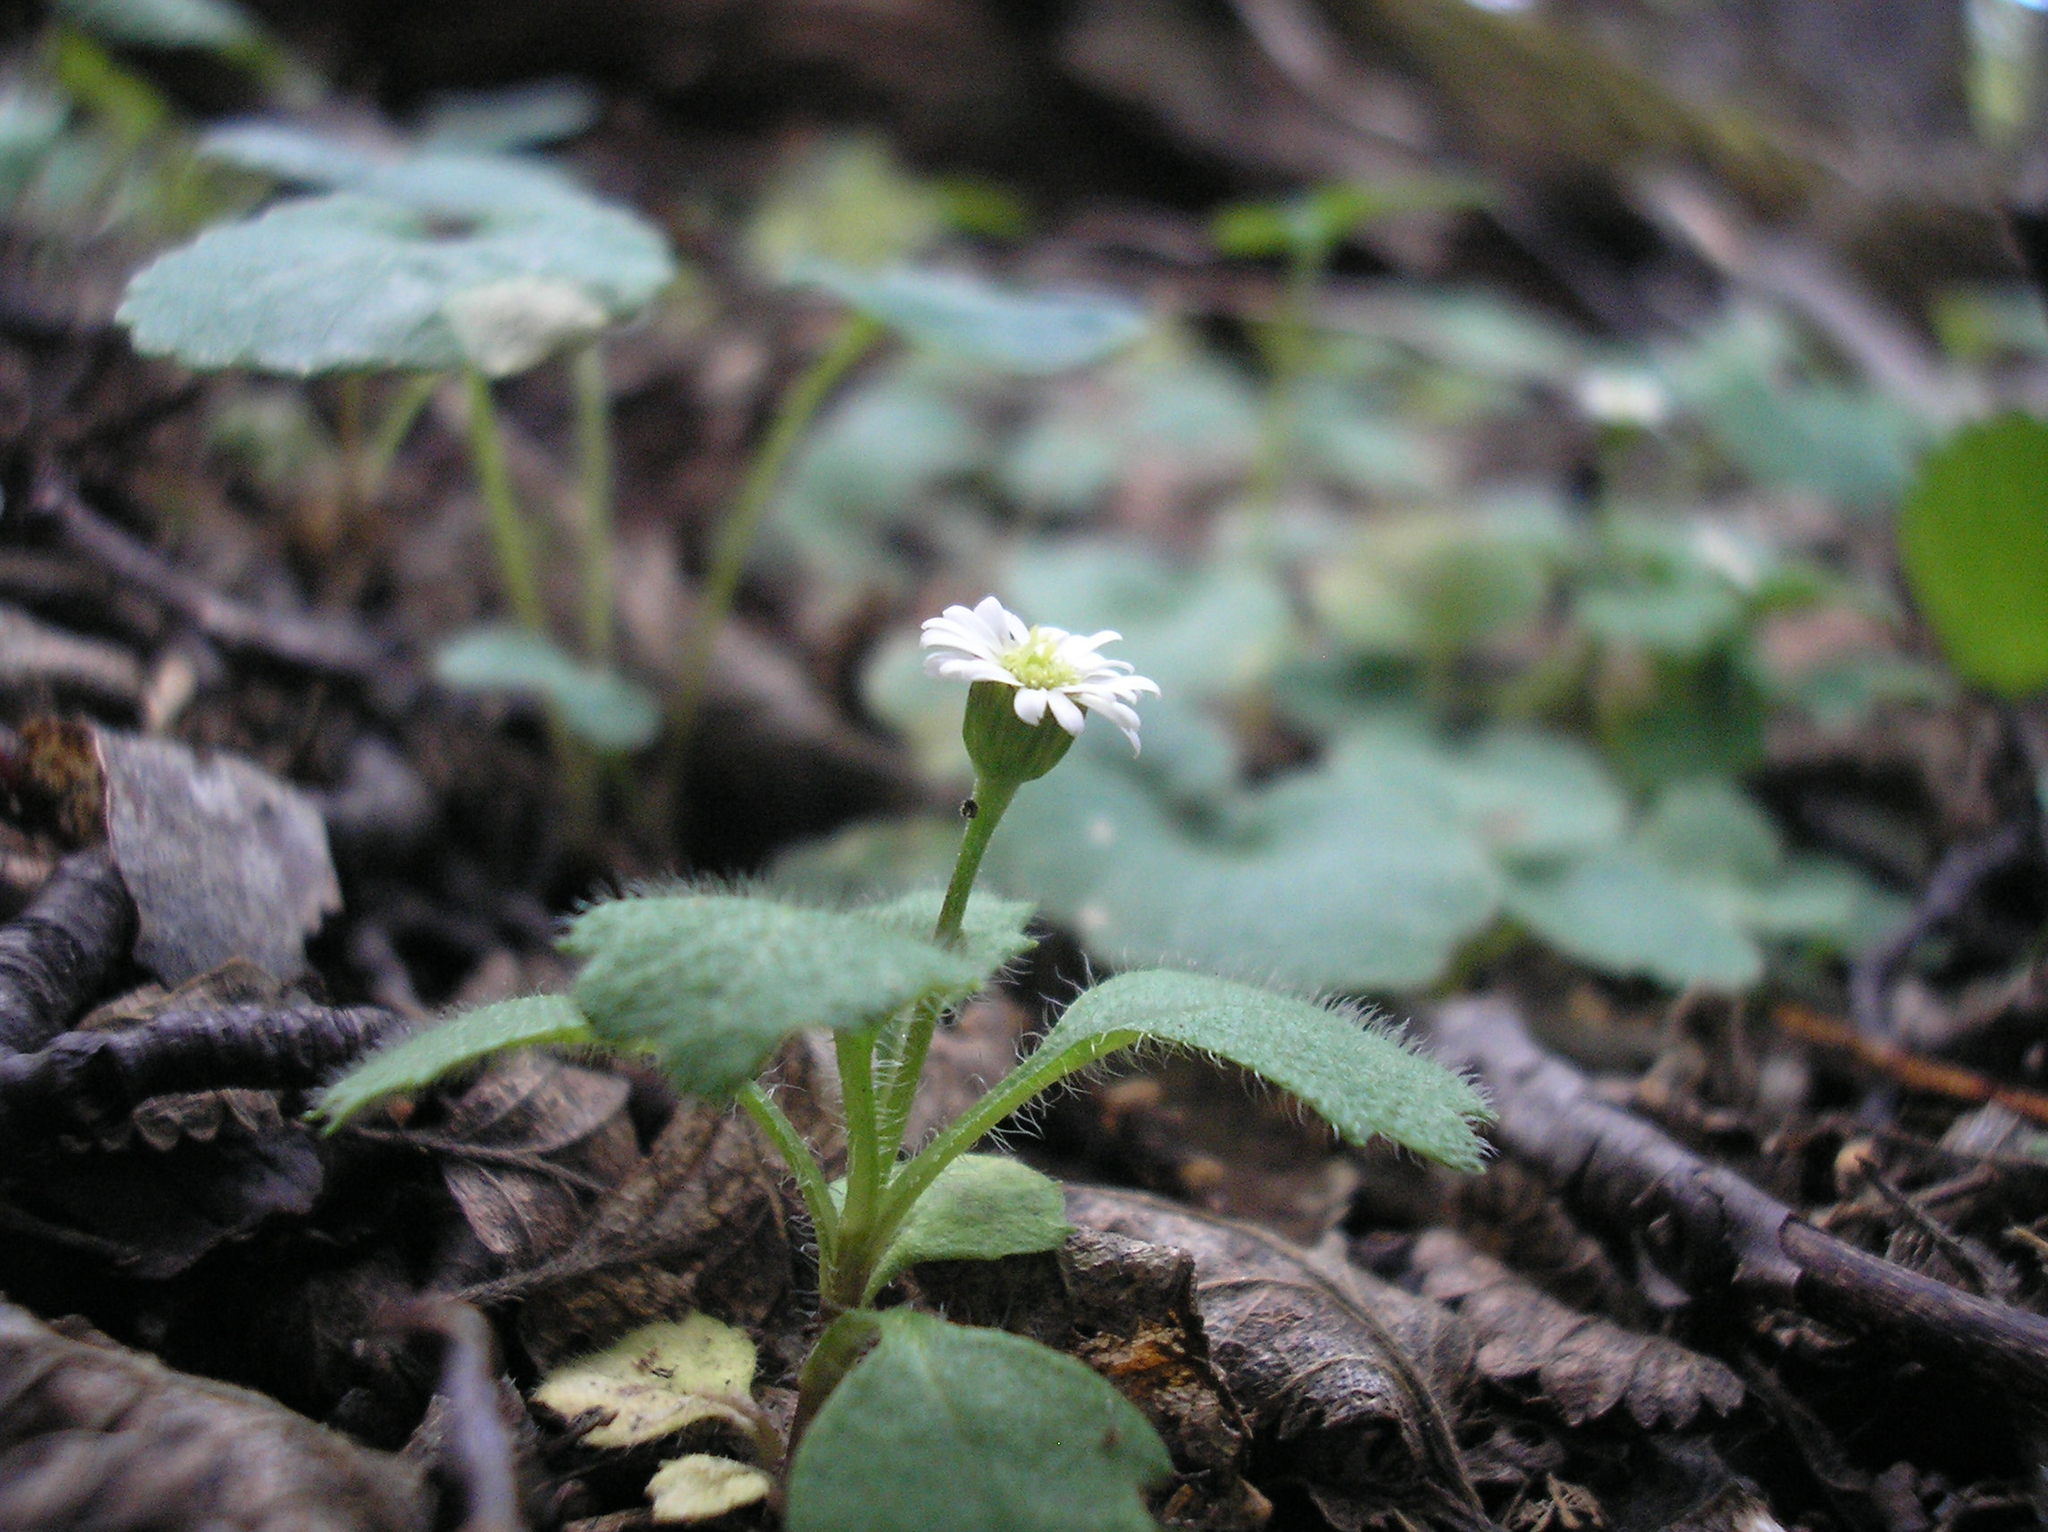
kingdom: Plantae
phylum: Tracheophyta
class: Magnoliopsida
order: Asterales
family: Asteraceae
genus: Lagenophora
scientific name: Lagenophora hariotii
